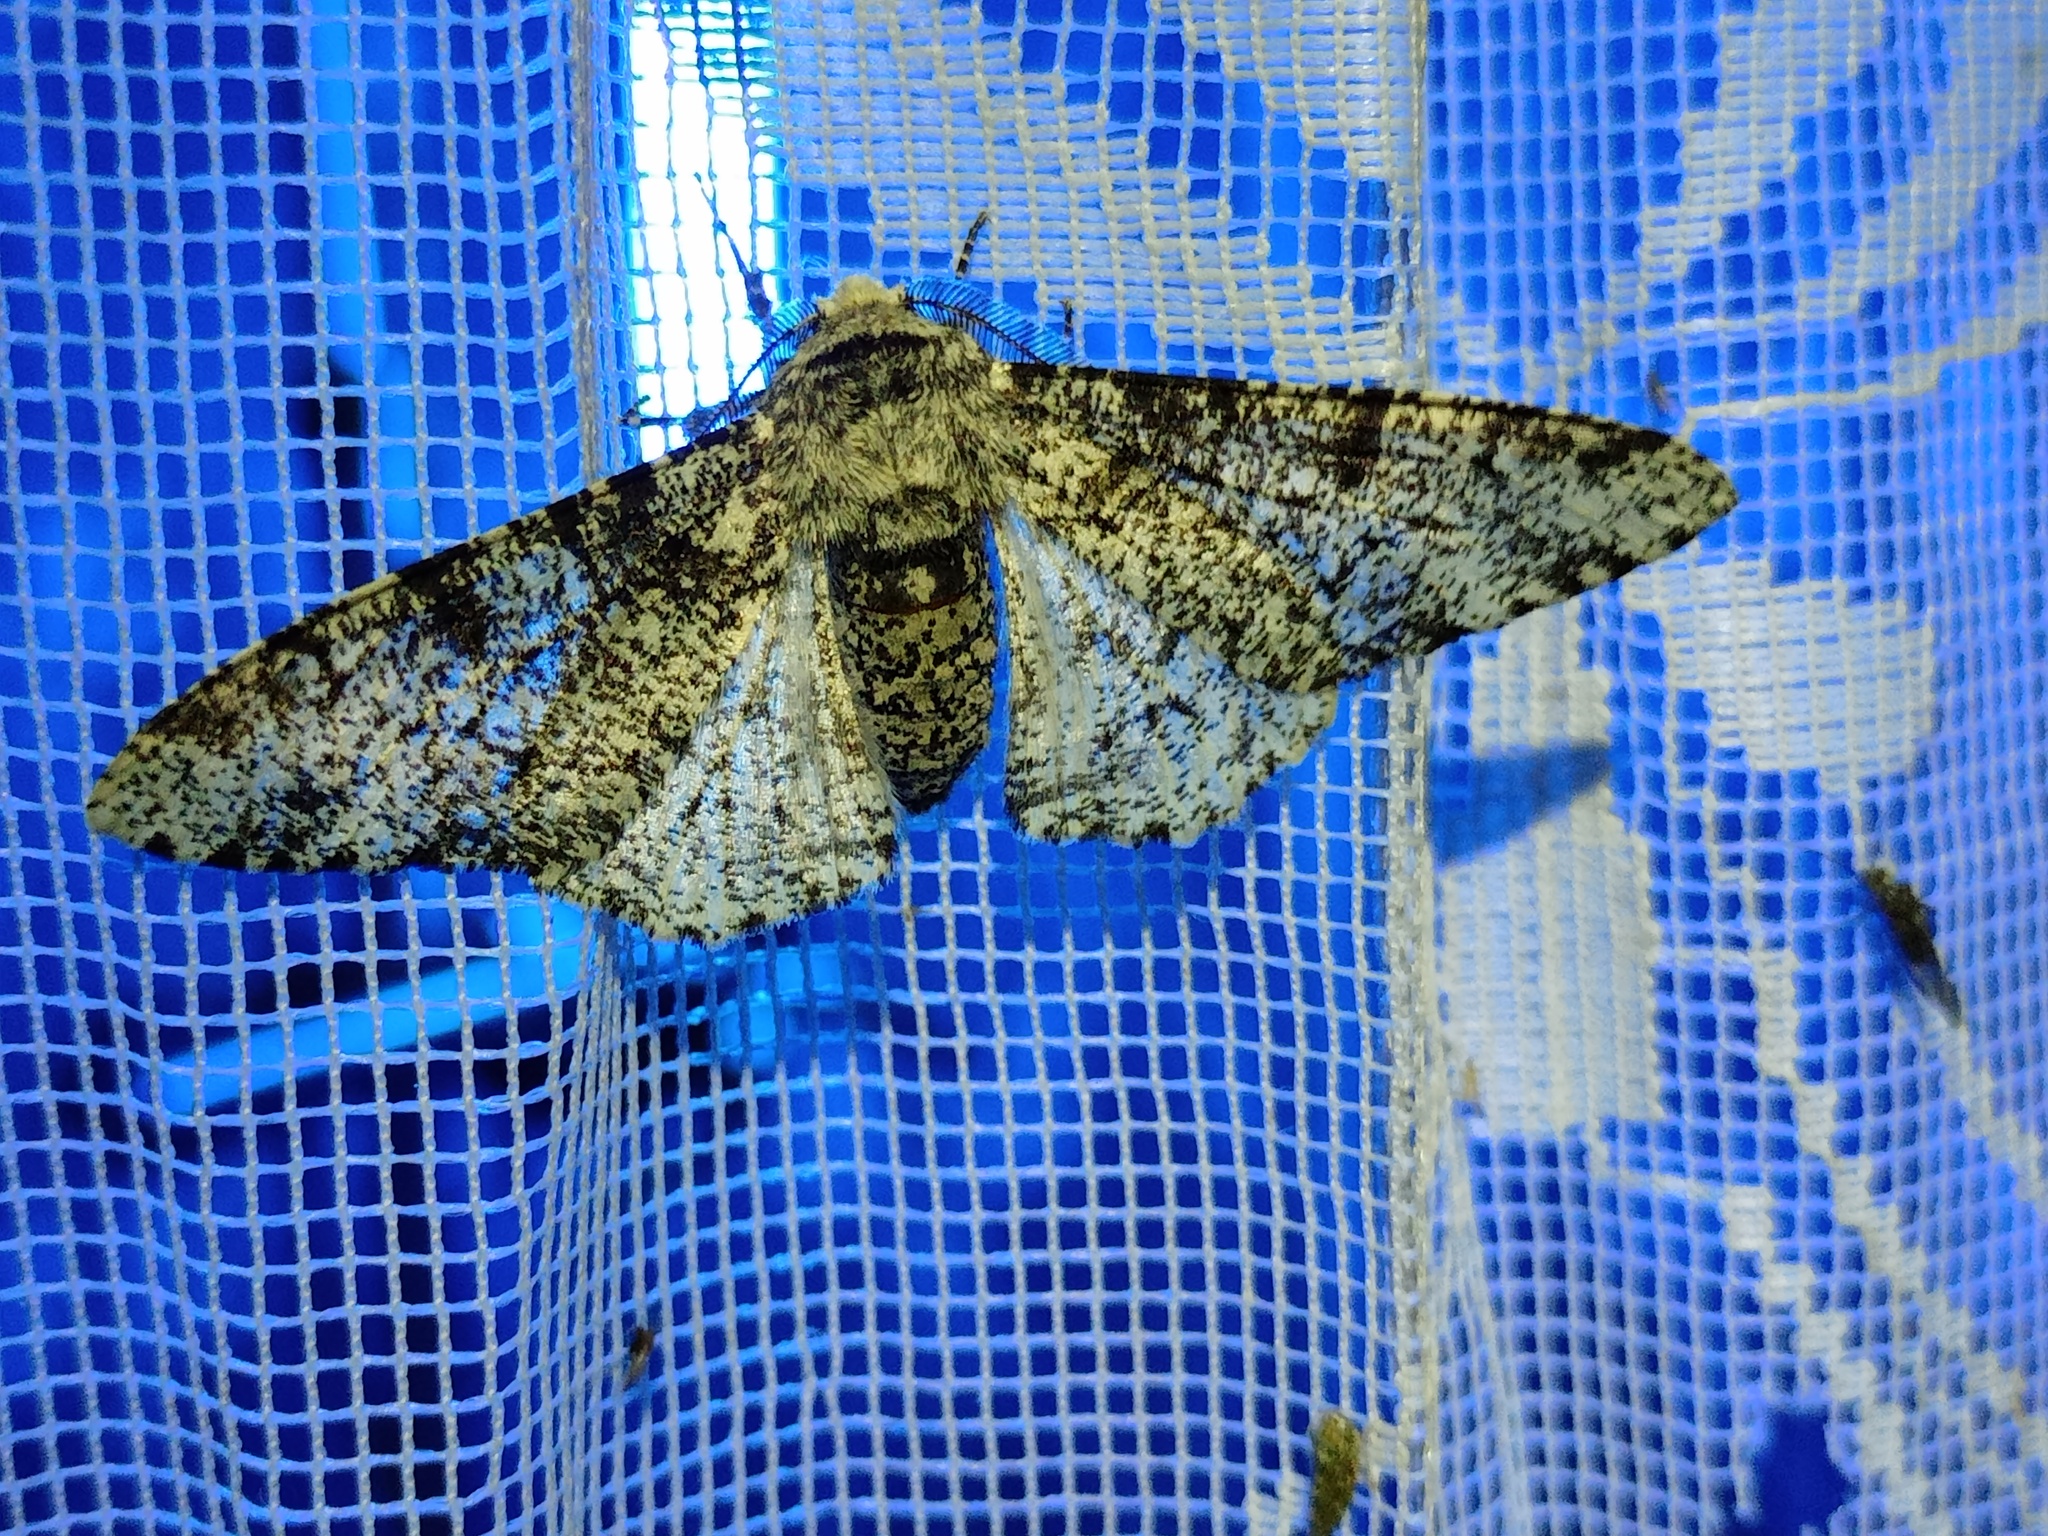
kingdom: Animalia
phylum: Arthropoda
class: Insecta
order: Lepidoptera
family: Geometridae
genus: Biston
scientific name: Biston betularia
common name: Peppered moth
